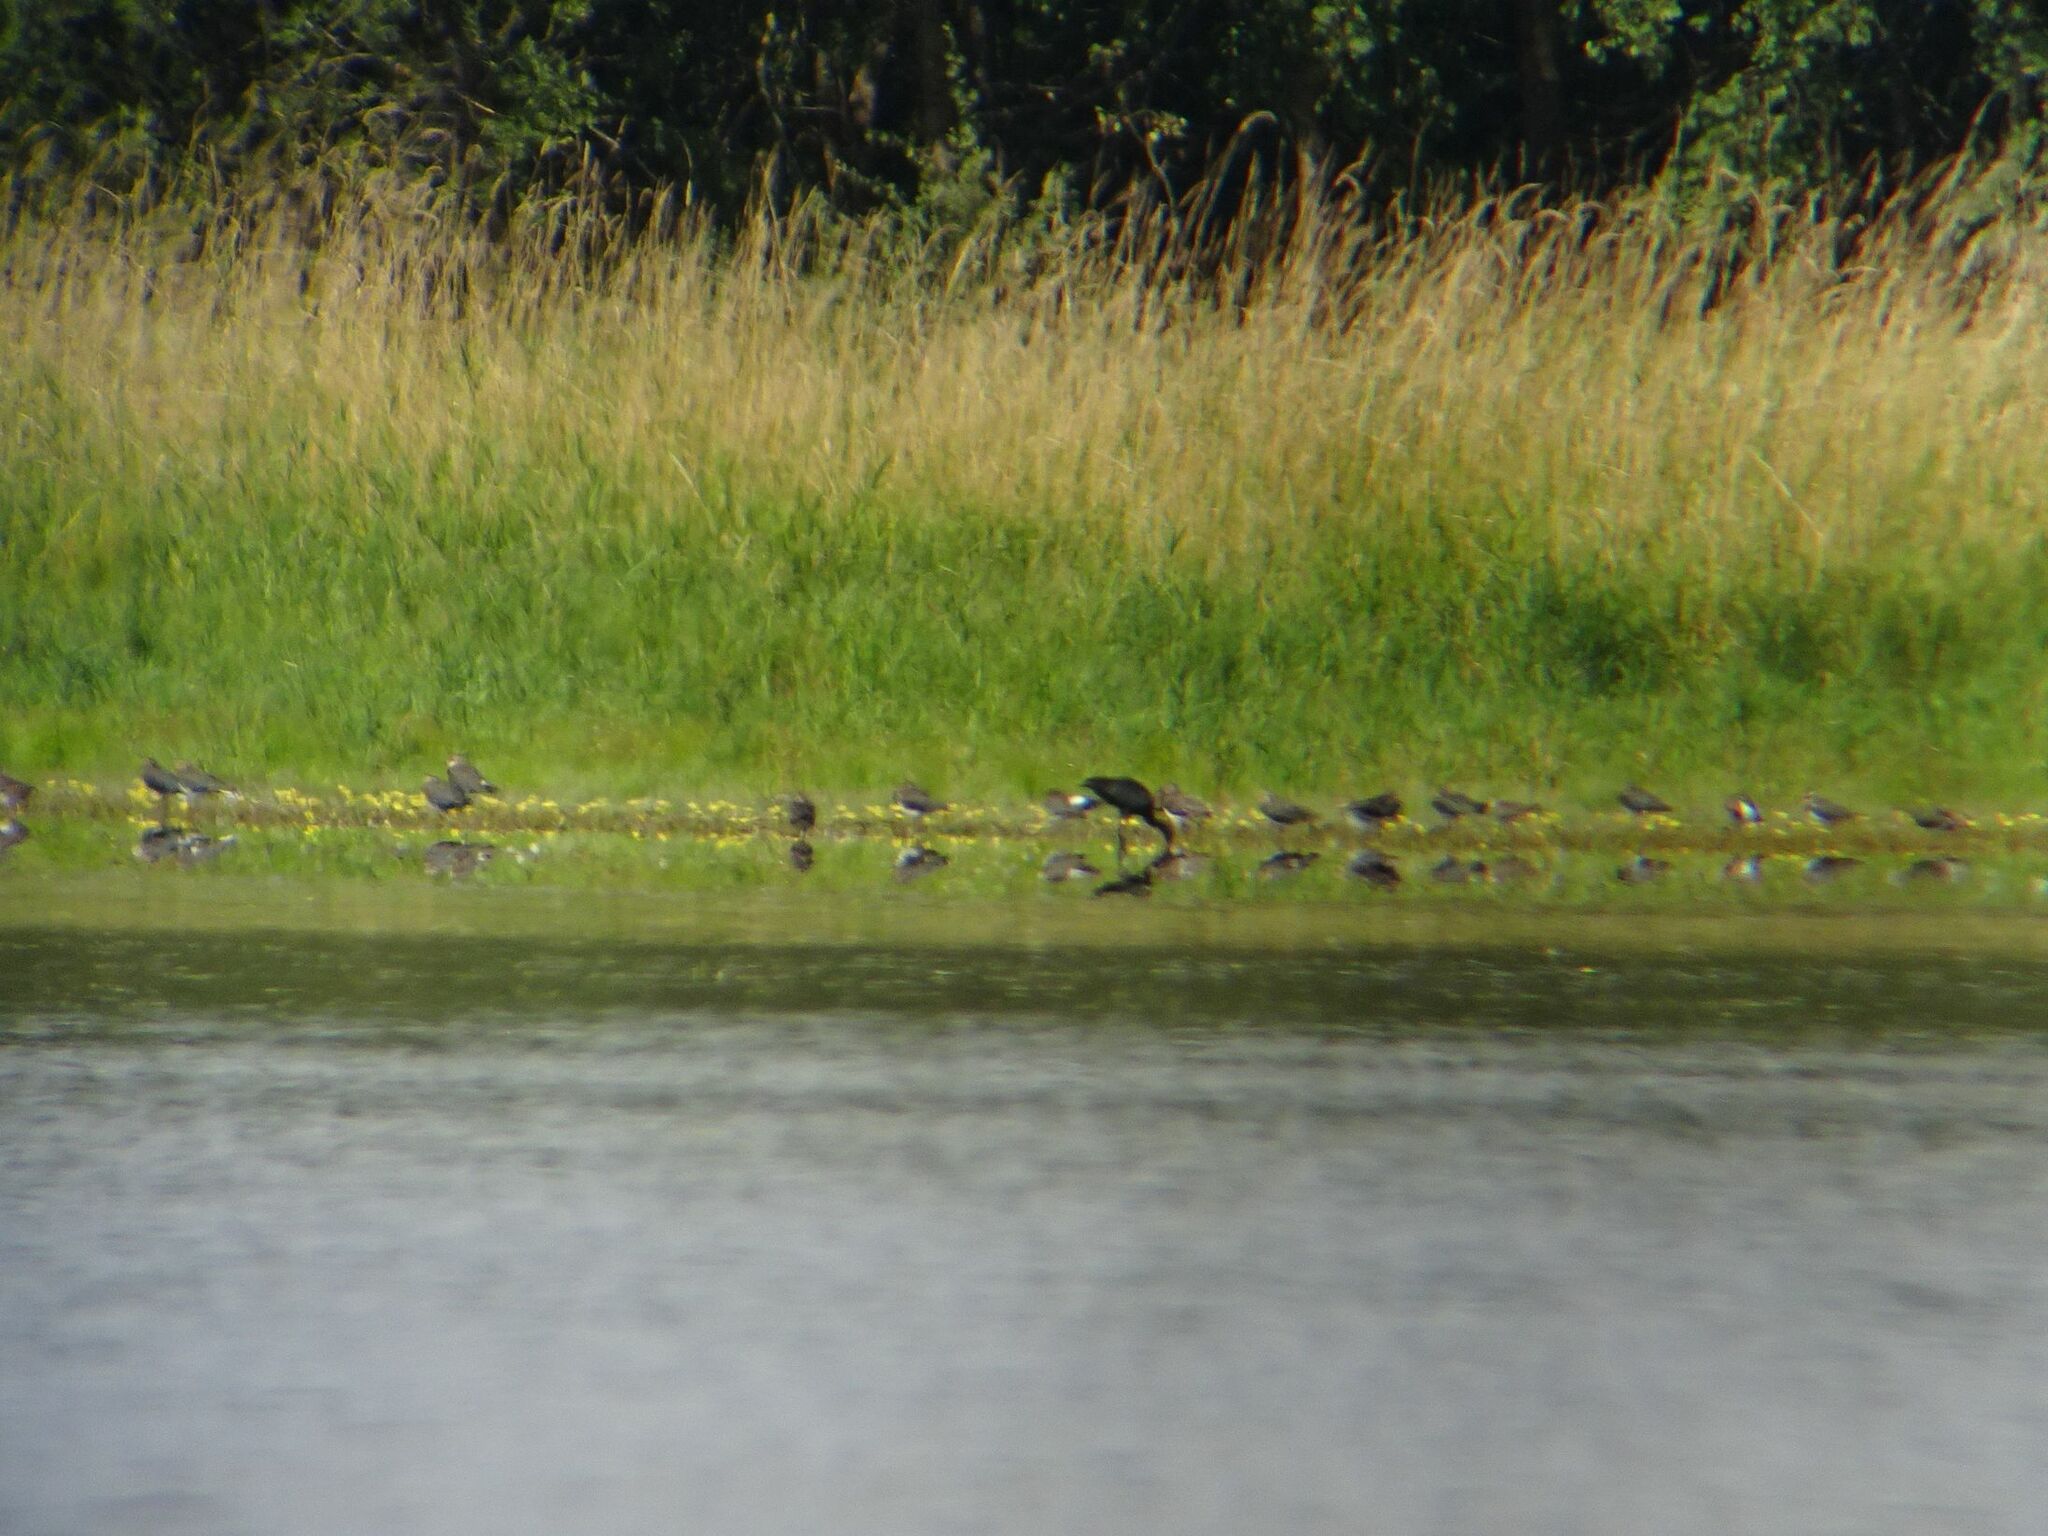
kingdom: Animalia
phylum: Chordata
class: Aves
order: Pelecaniformes
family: Threskiornithidae
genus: Plegadis
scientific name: Plegadis falcinellus
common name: Glossy ibis
